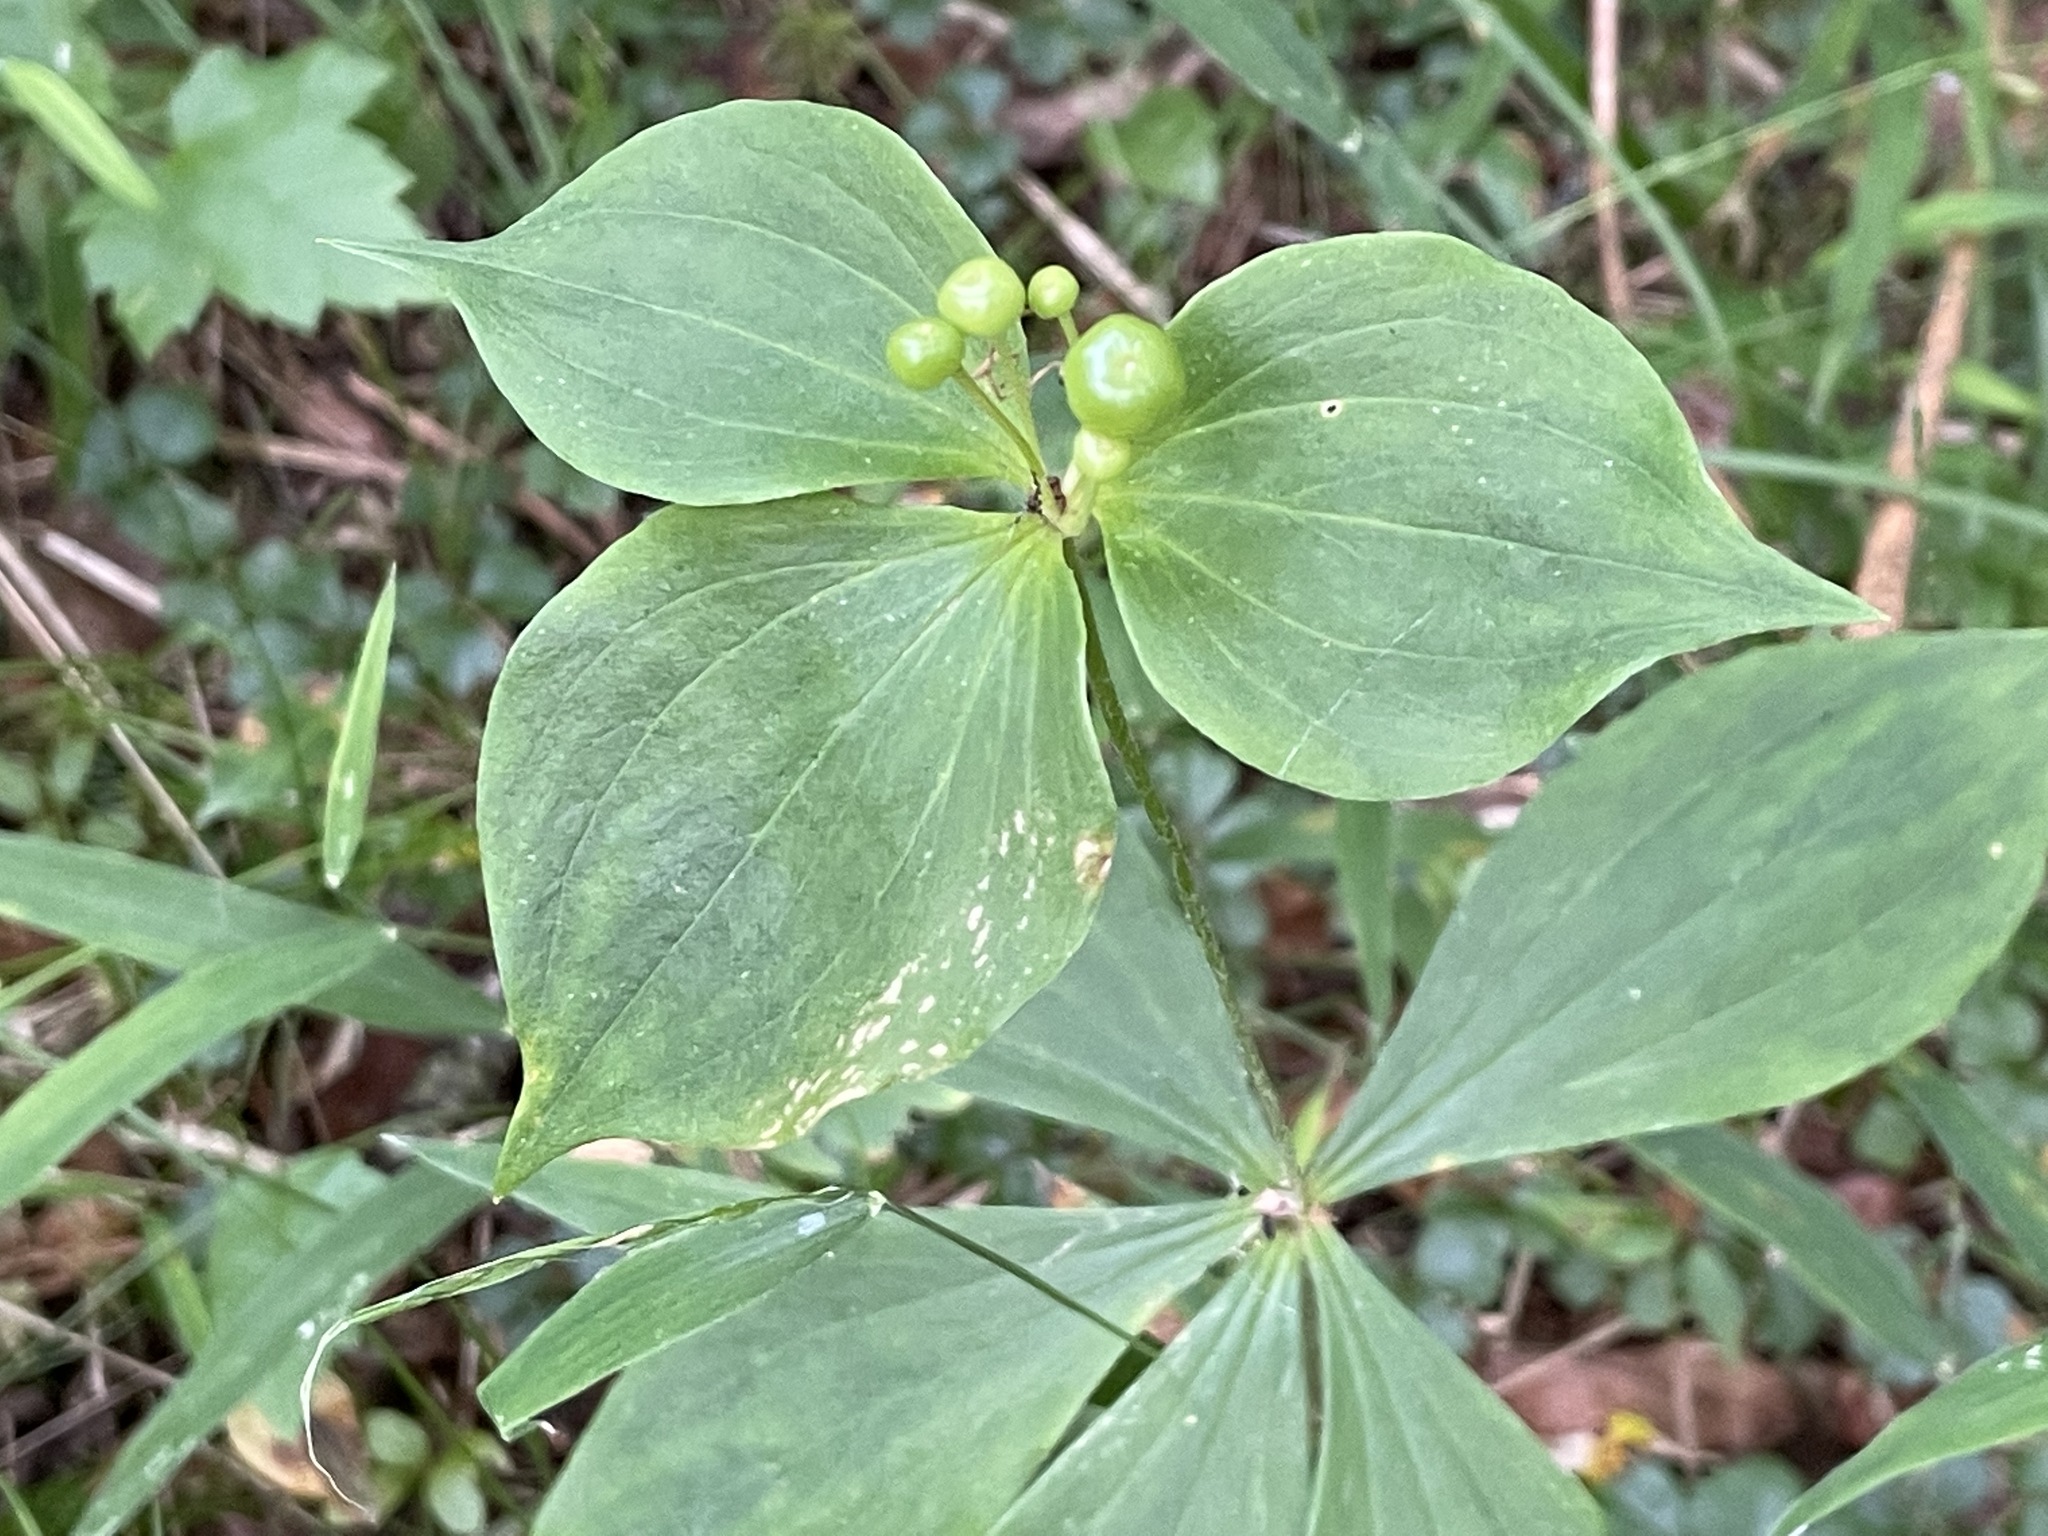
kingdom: Plantae
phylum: Tracheophyta
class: Liliopsida
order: Liliales
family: Liliaceae
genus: Medeola
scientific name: Medeola virginiana
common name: Indian cucumber-root
